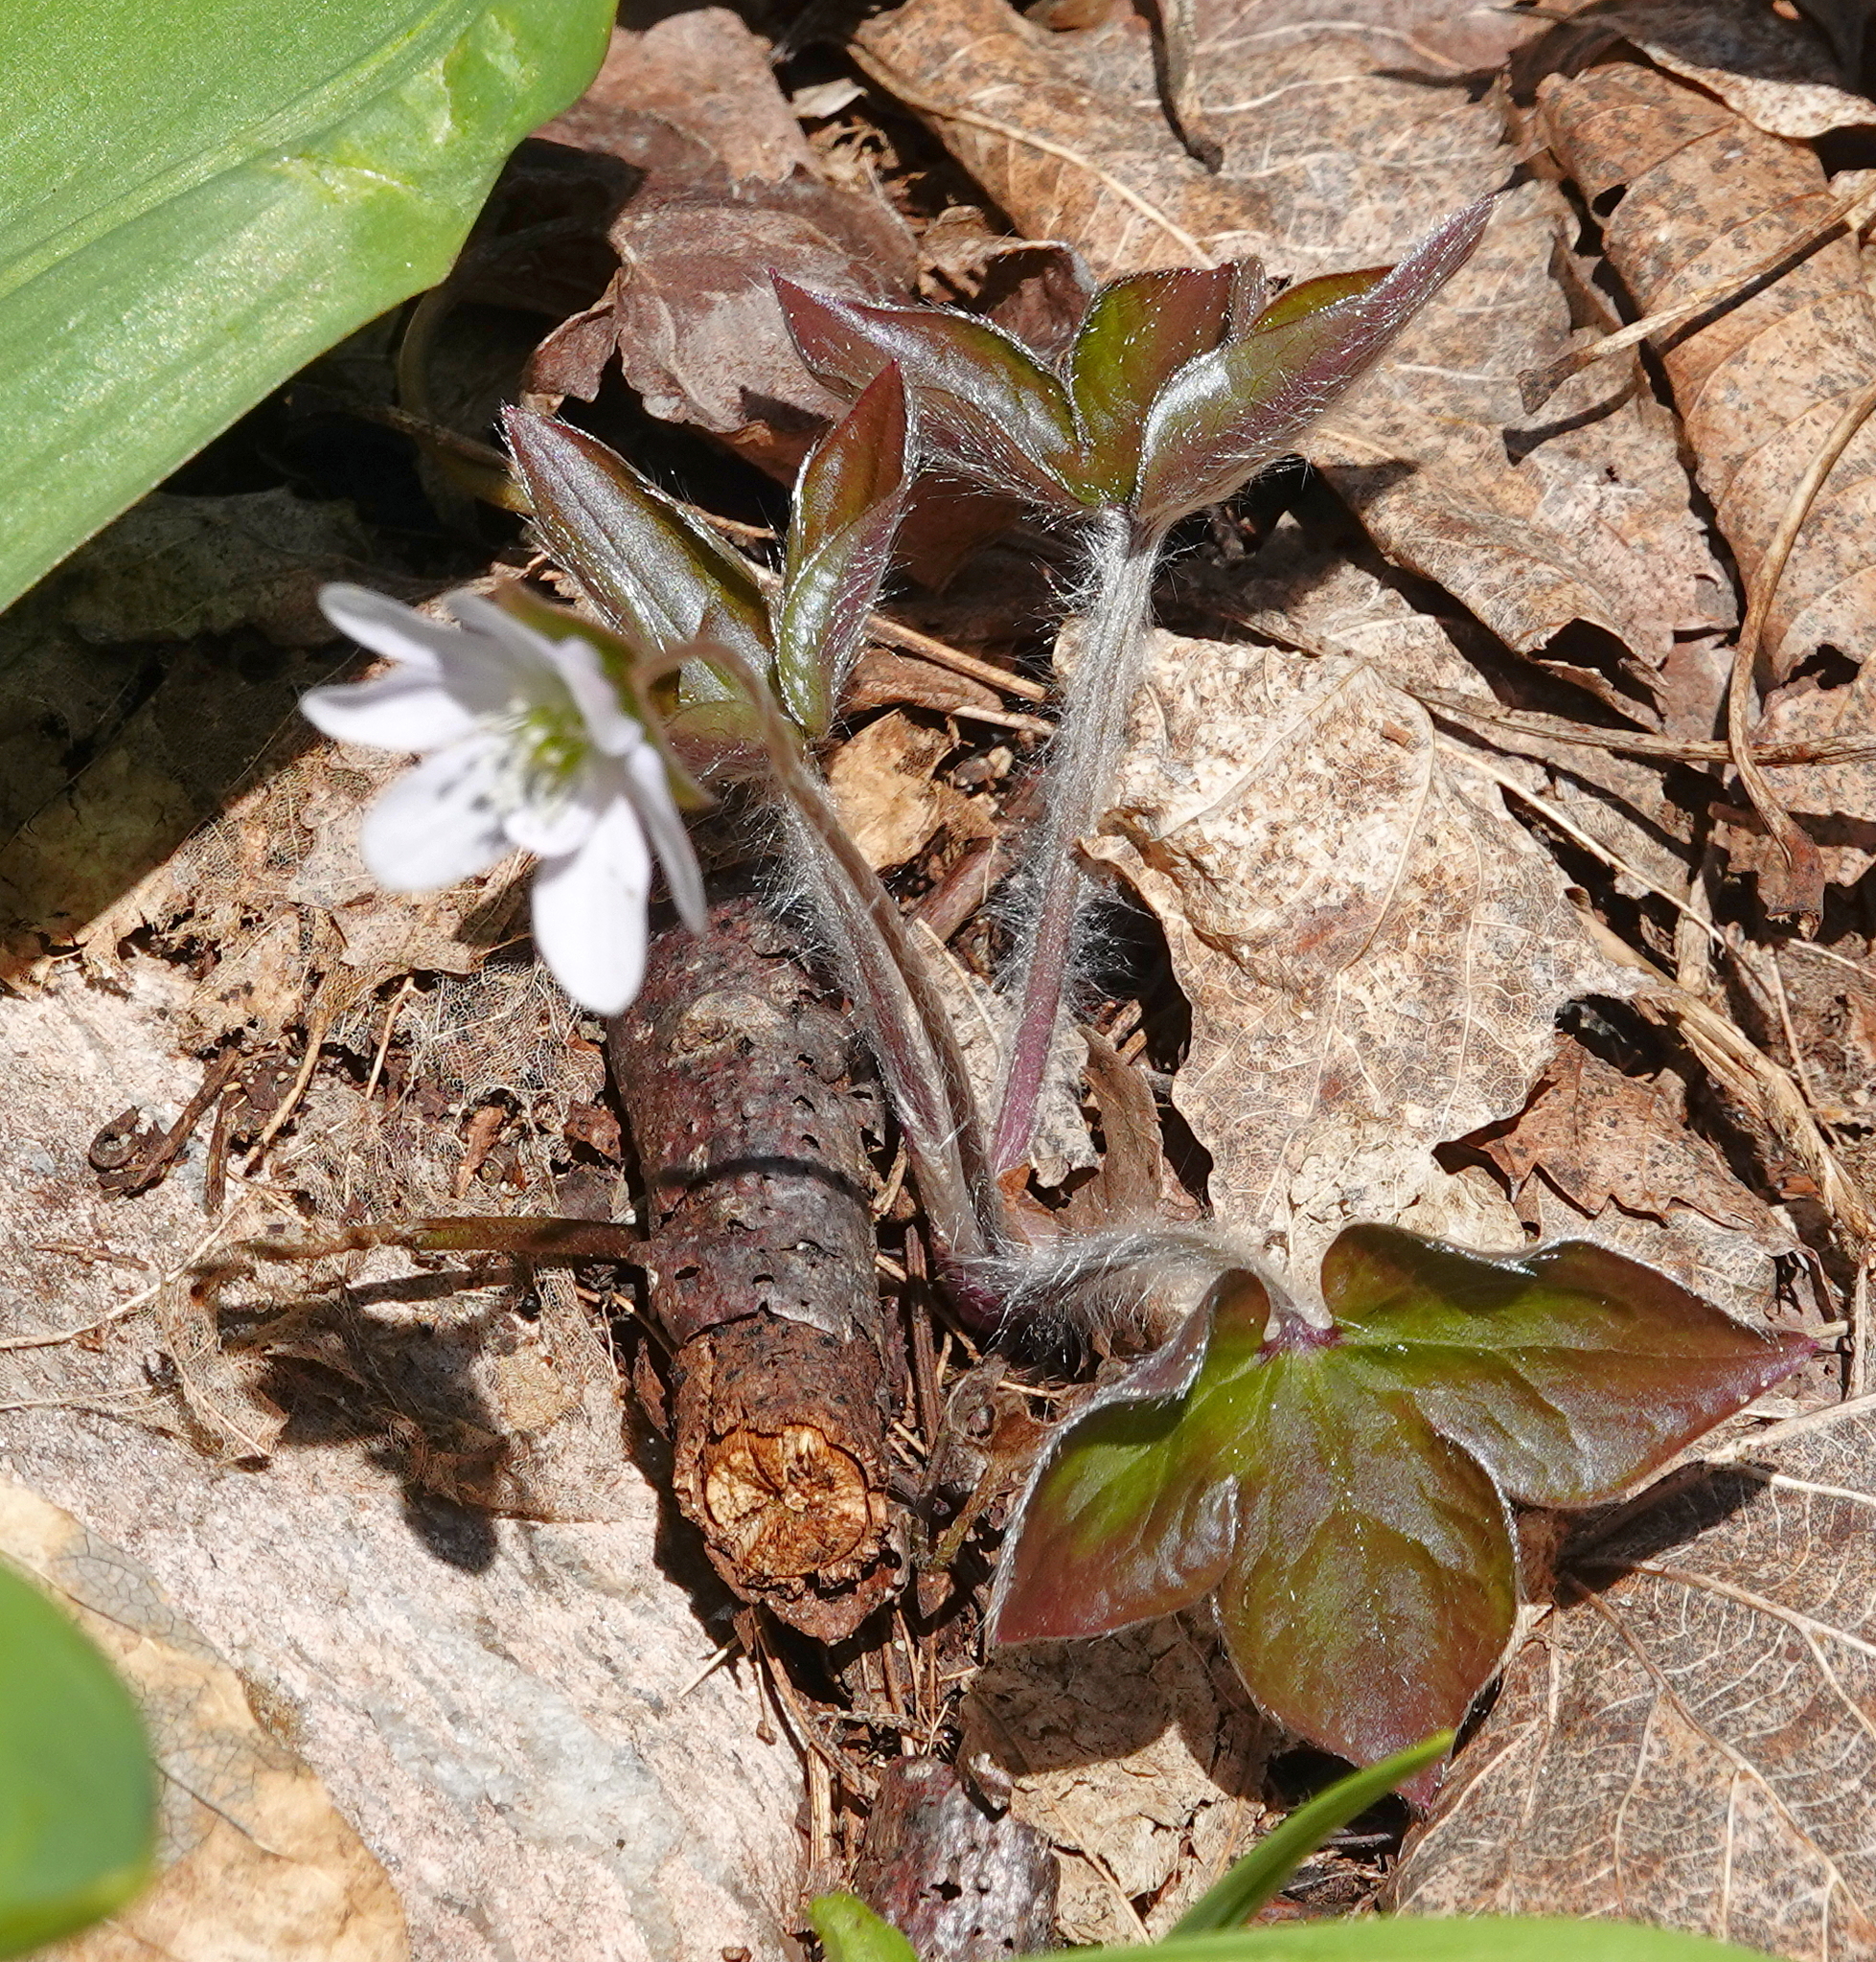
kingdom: Plantae
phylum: Tracheophyta
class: Magnoliopsida
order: Ranunculales
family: Ranunculaceae
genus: Hepatica
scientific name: Hepatica acutiloba
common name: Sharp-lobed hepatica
